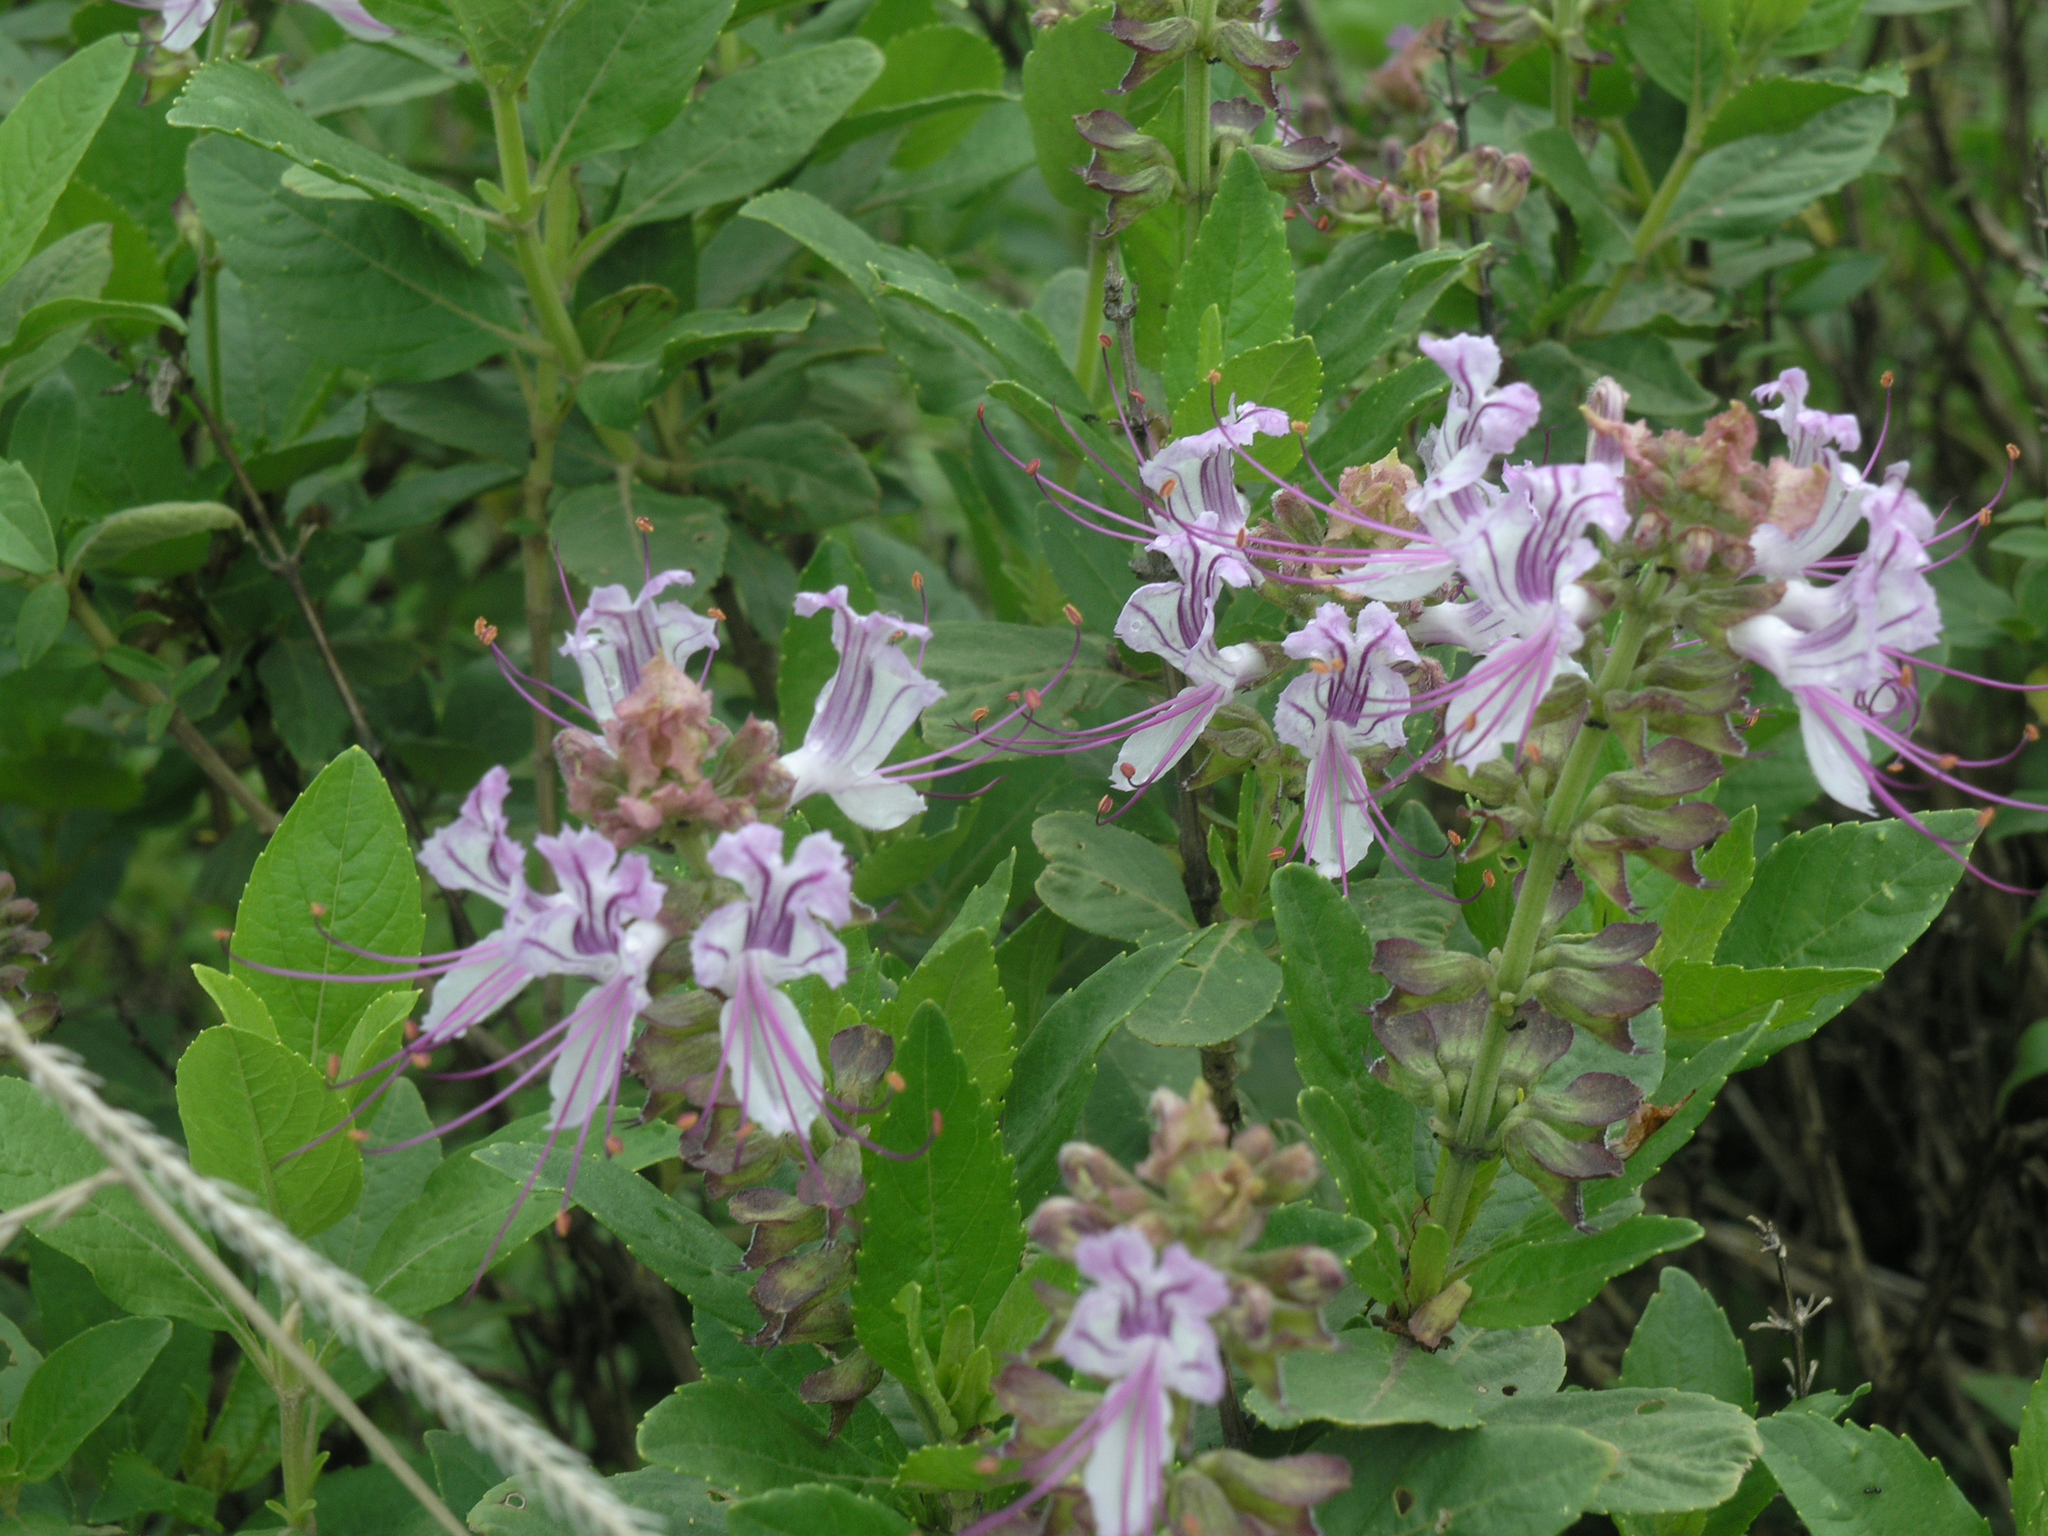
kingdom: Plantae
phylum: Tracheophyta
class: Magnoliopsida
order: Lamiales
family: Lamiaceae
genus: Ocimum
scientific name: Ocimum grandiflorum
